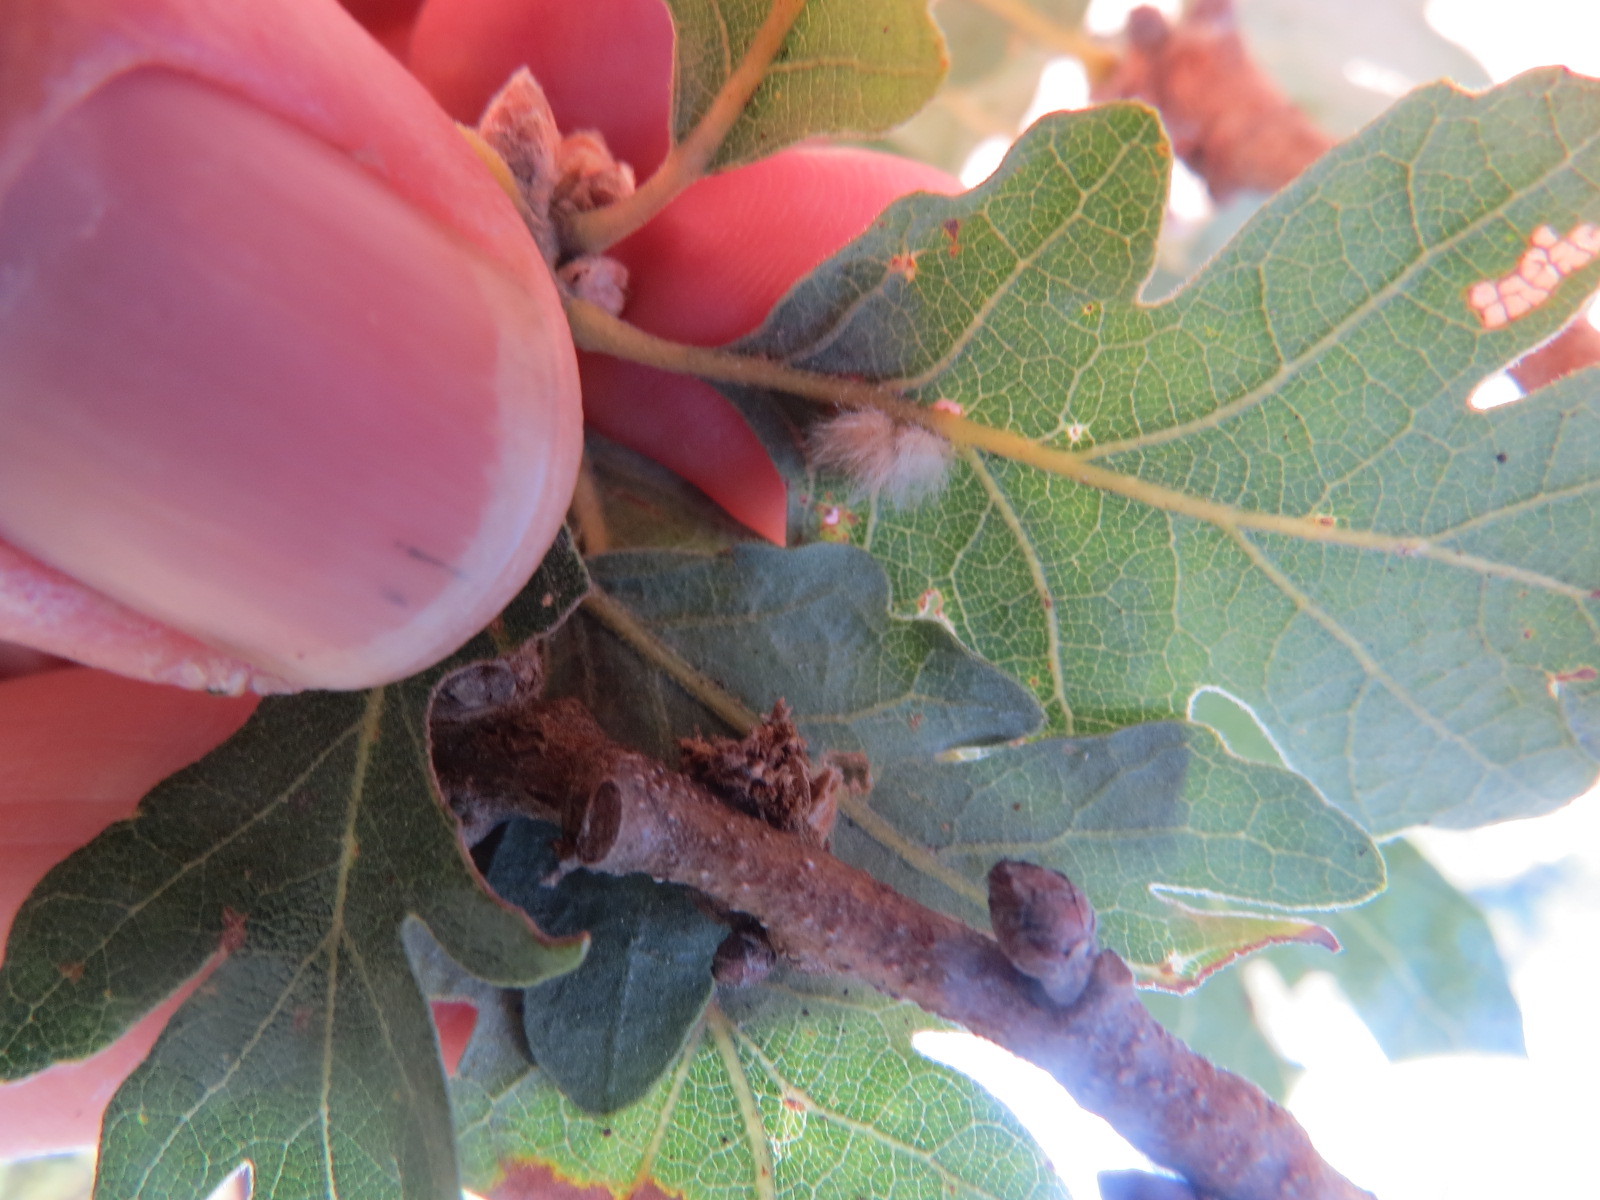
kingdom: Animalia
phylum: Arthropoda
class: Insecta
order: Hymenoptera
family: Cynipidae
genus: Andricus
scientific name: Andricus Druon fullawayi
